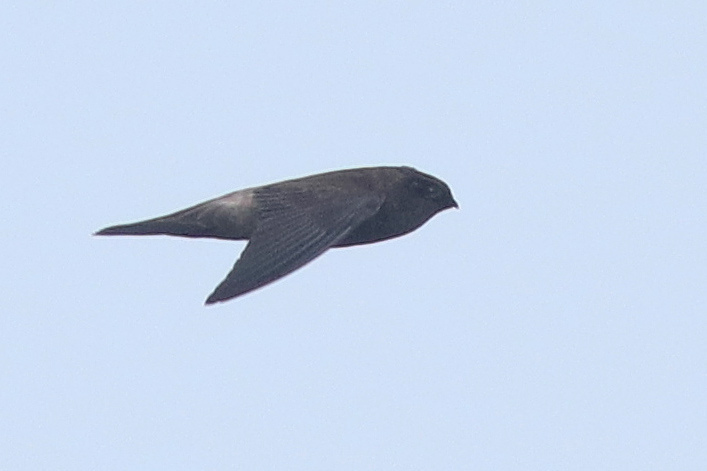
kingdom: Animalia
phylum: Chordata
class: Aves
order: Apodiformes
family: Apodidae
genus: Aerodramus
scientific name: Aerodramus
